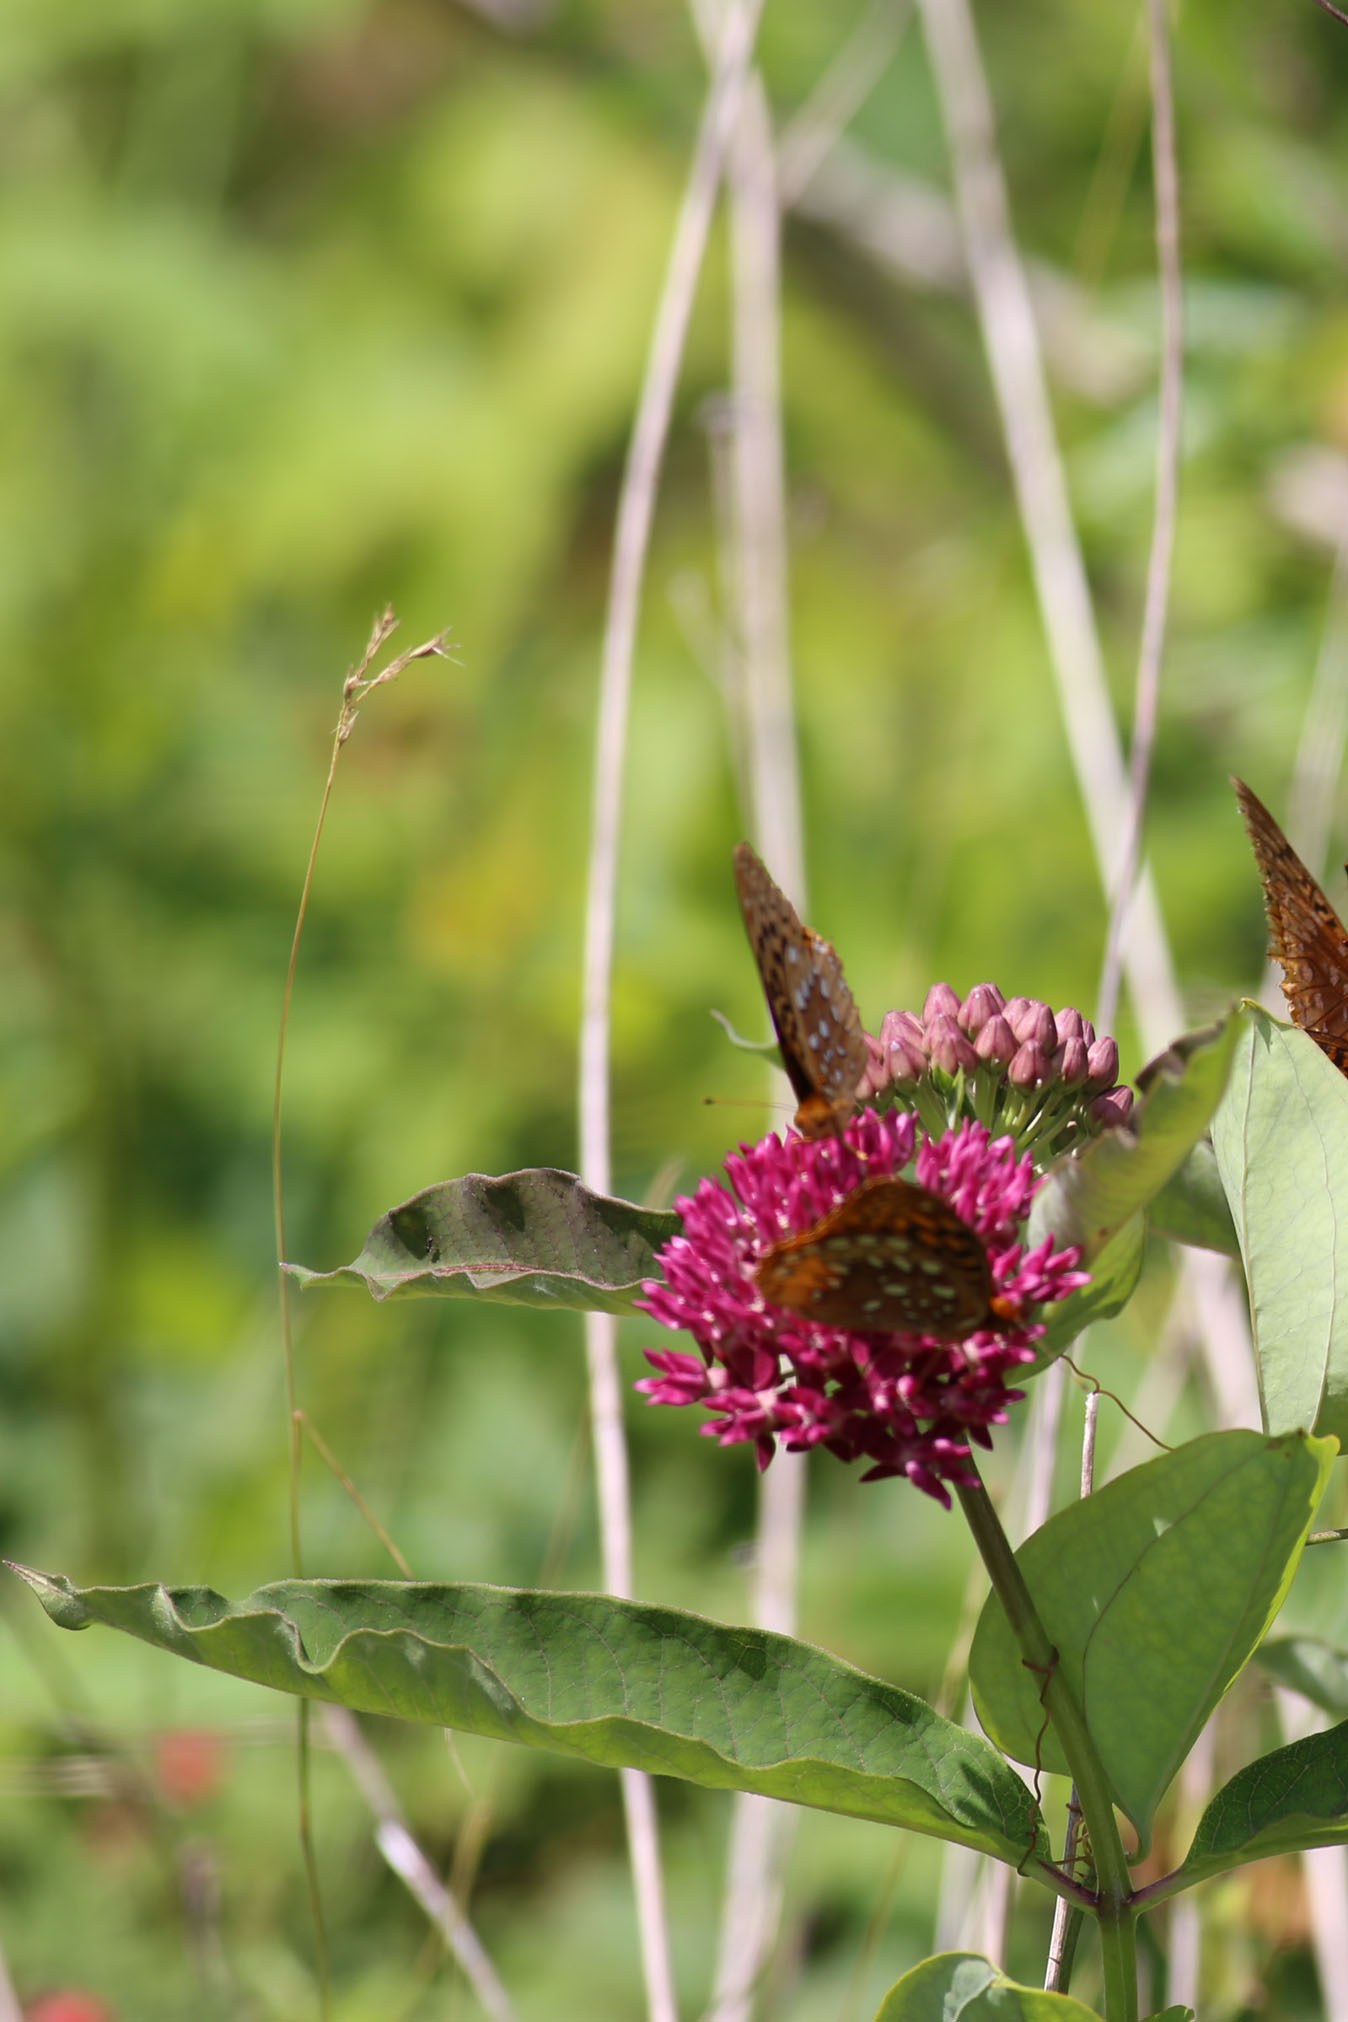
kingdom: Plantae
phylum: Tracheophyta
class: Magnoliopsida
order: Gentianales
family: Apocynaceae
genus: Asclepias
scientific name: Asclepias purpurascens
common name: Purple milkweed
